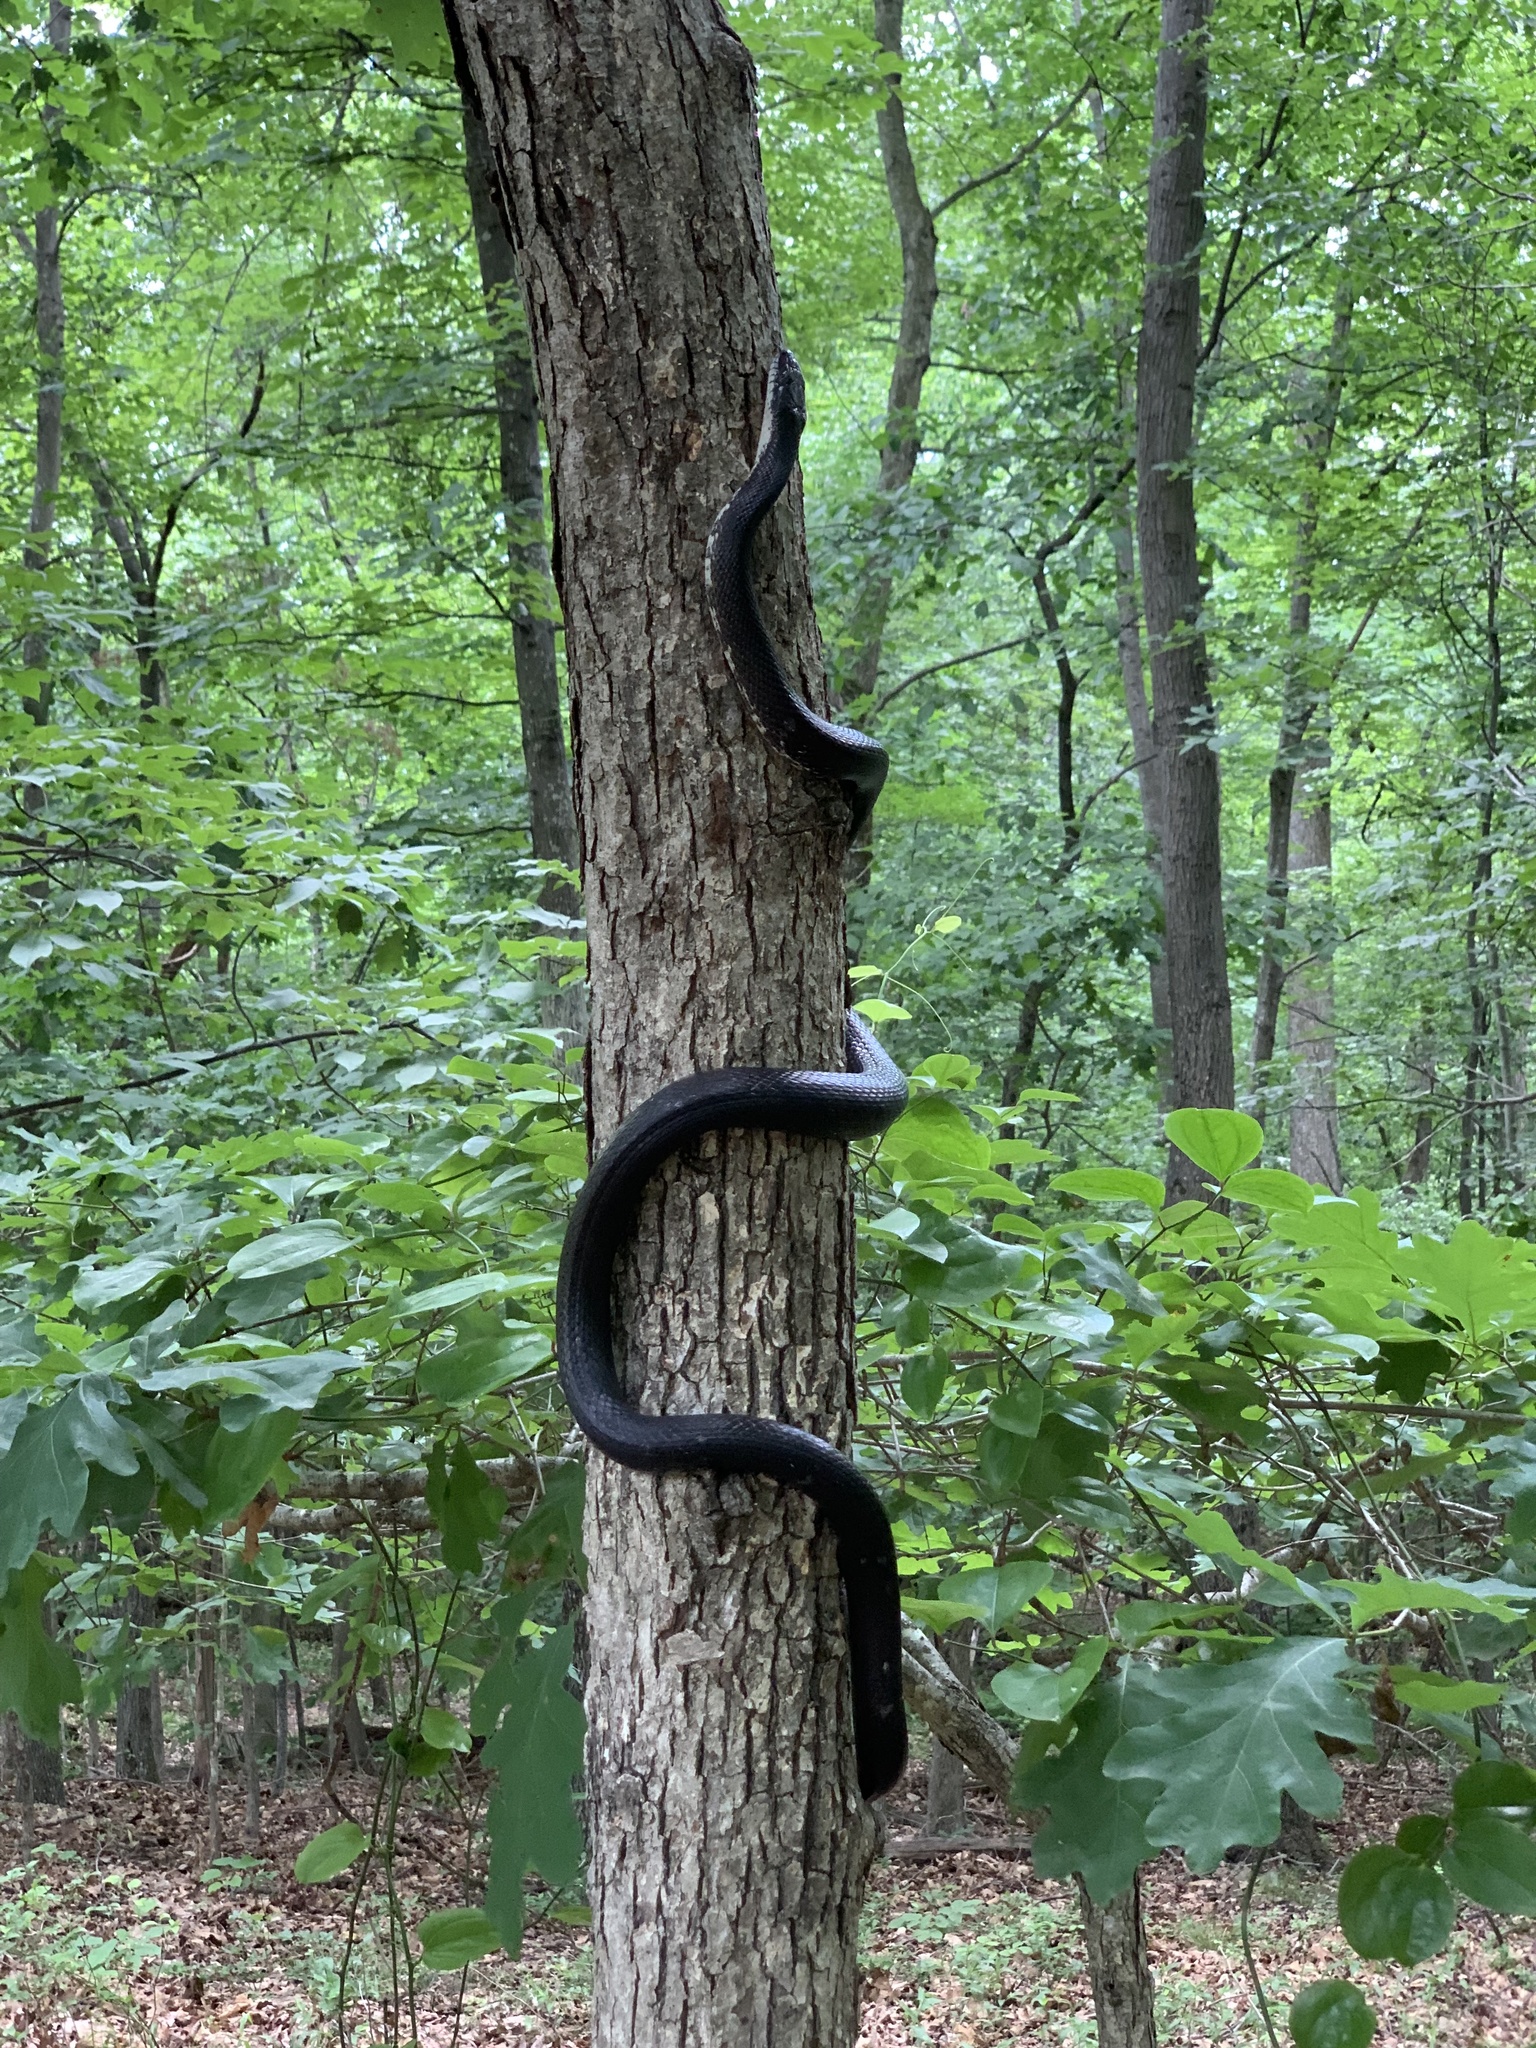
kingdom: Animalia
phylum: Chordata
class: Squamata
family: Colubridae
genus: Pantherophis
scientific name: Pantherophis alleghaniensis
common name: Eastern rat snake
